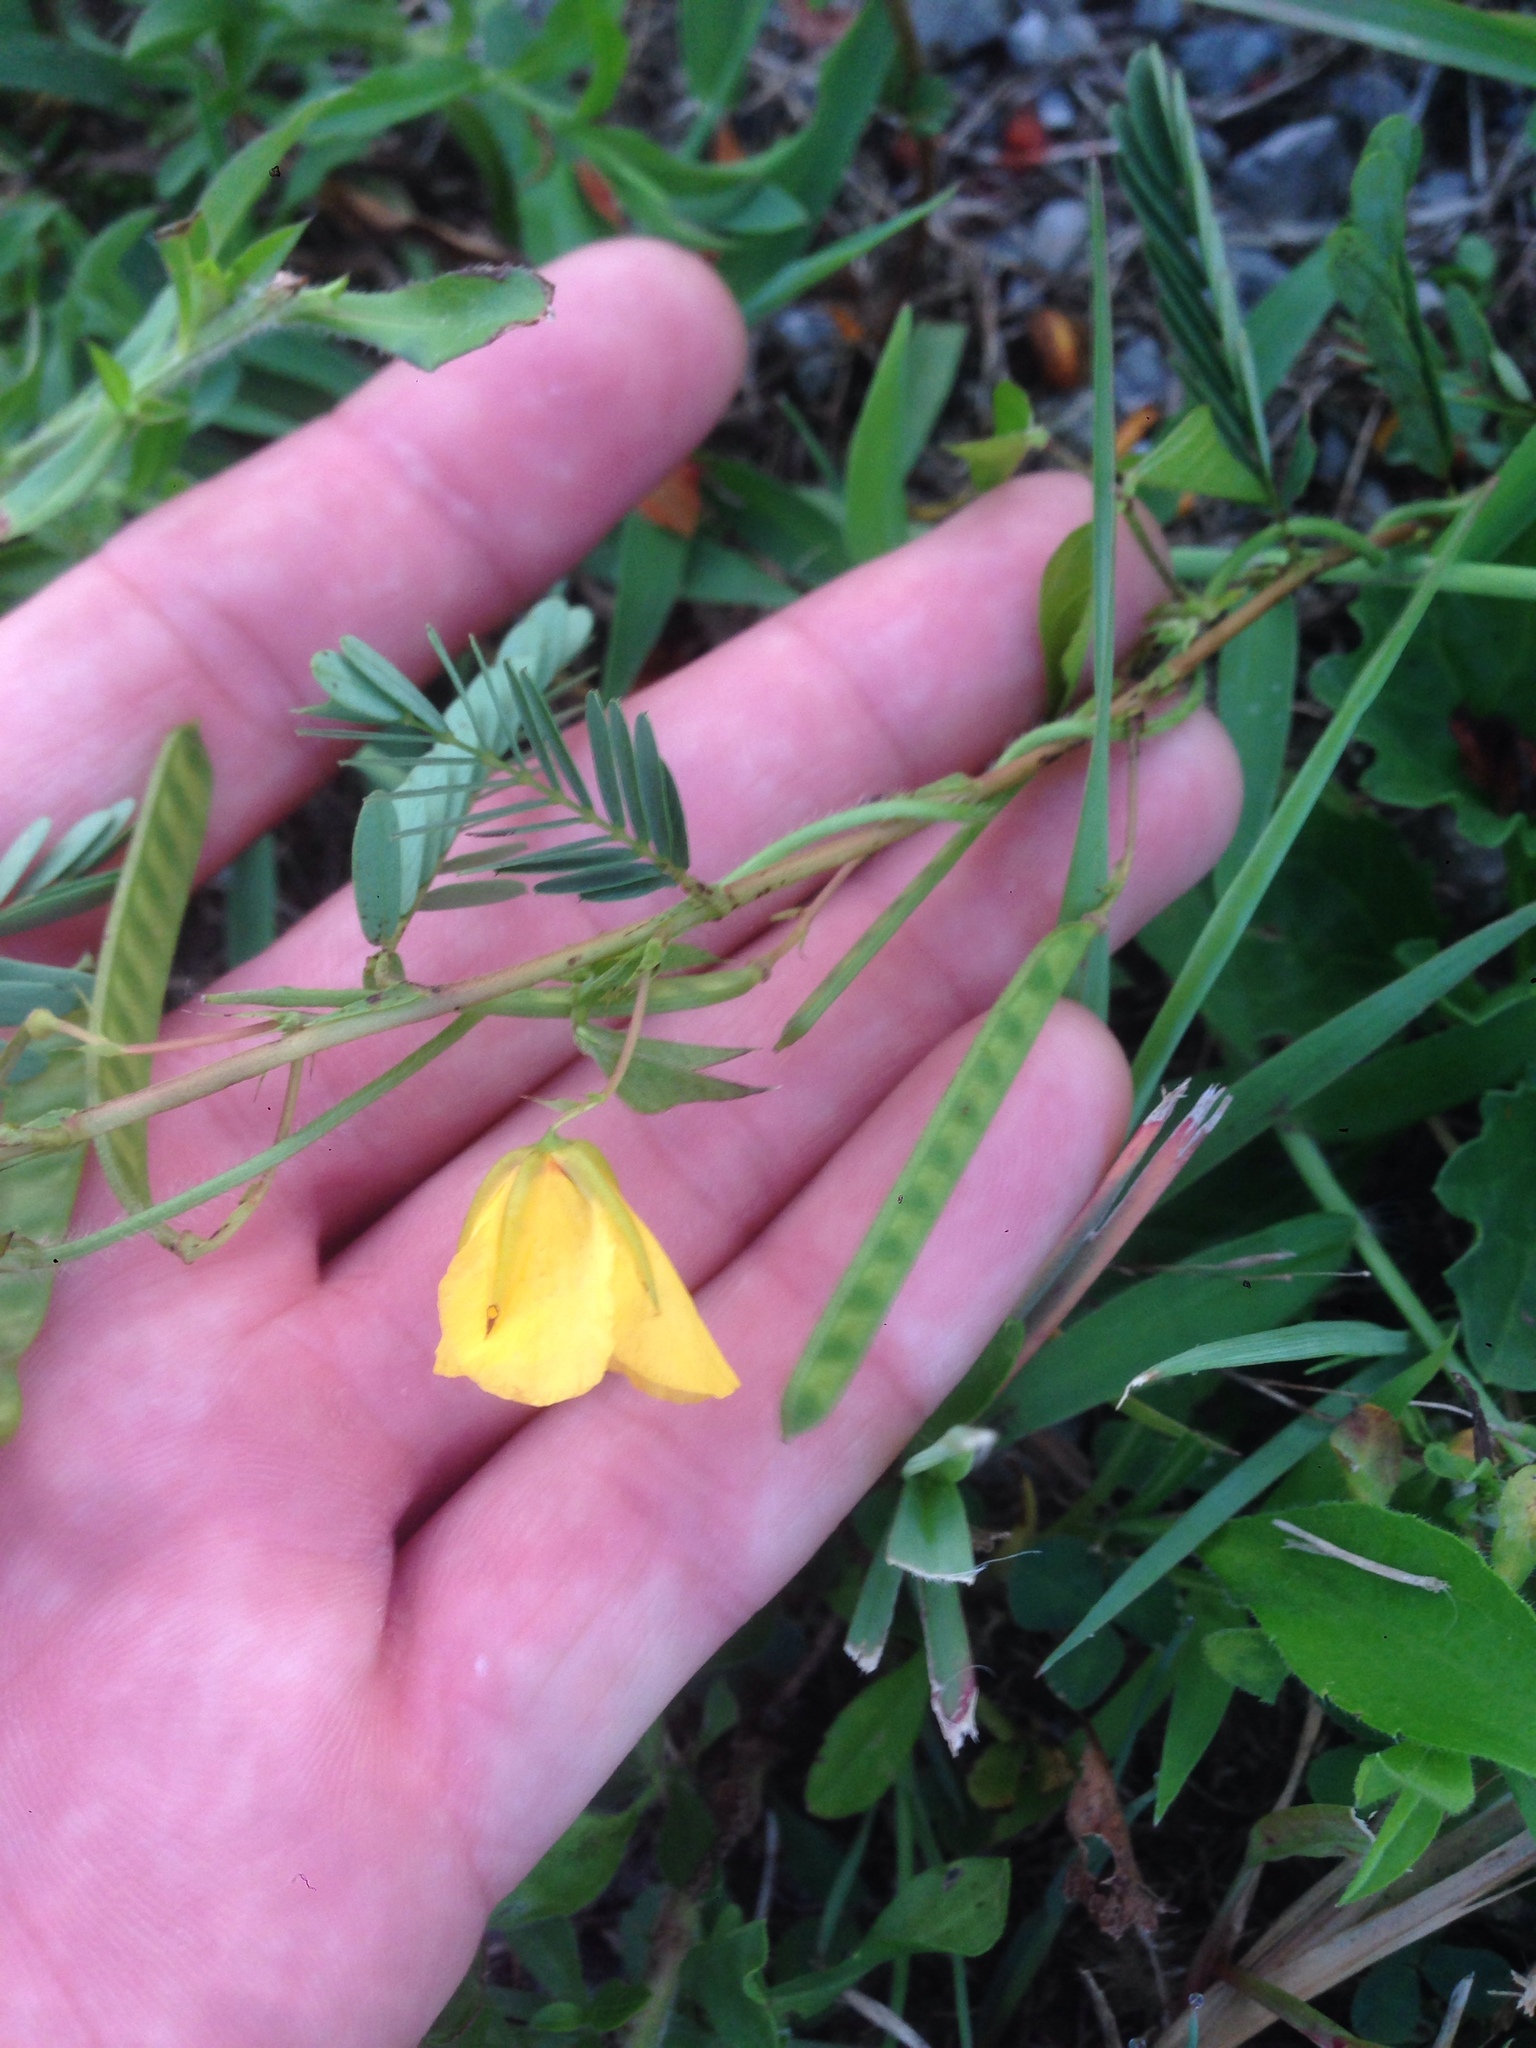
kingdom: Plantae
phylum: Tracheophyta
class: Magnoliopsida
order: Fabales
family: Fabaceae
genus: Chamaecrista
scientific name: Chamaecrista fasciculata
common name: Golden cassia
